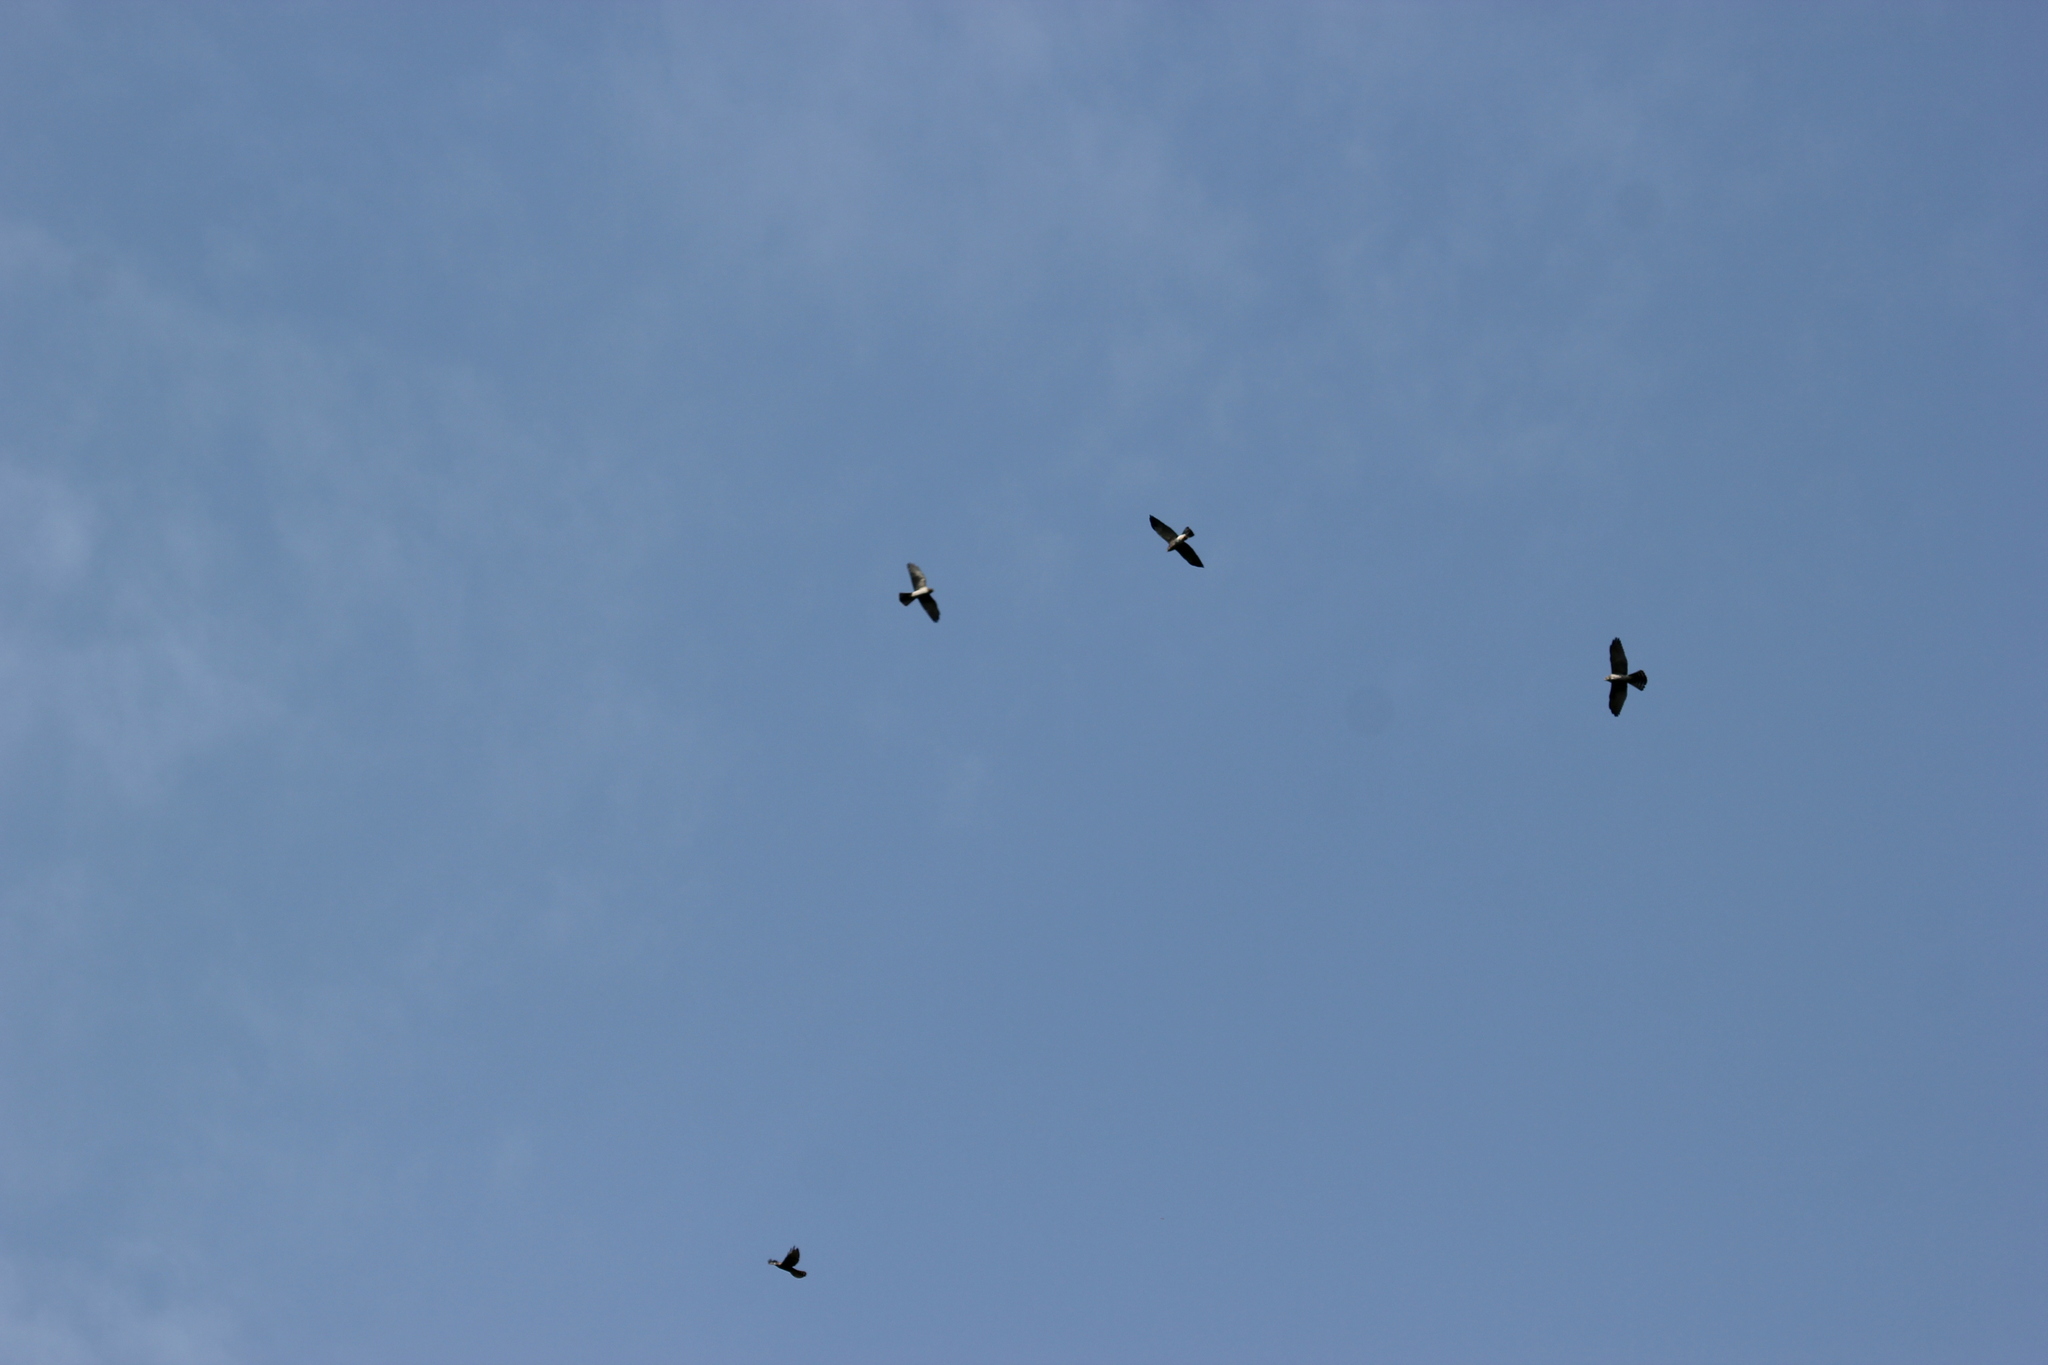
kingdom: Animalia
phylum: Chordata
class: Aves
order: Accipitriformes
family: Accipitridae
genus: Accipiter
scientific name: Accipiter brevipes
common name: Levant sparrowhawk
